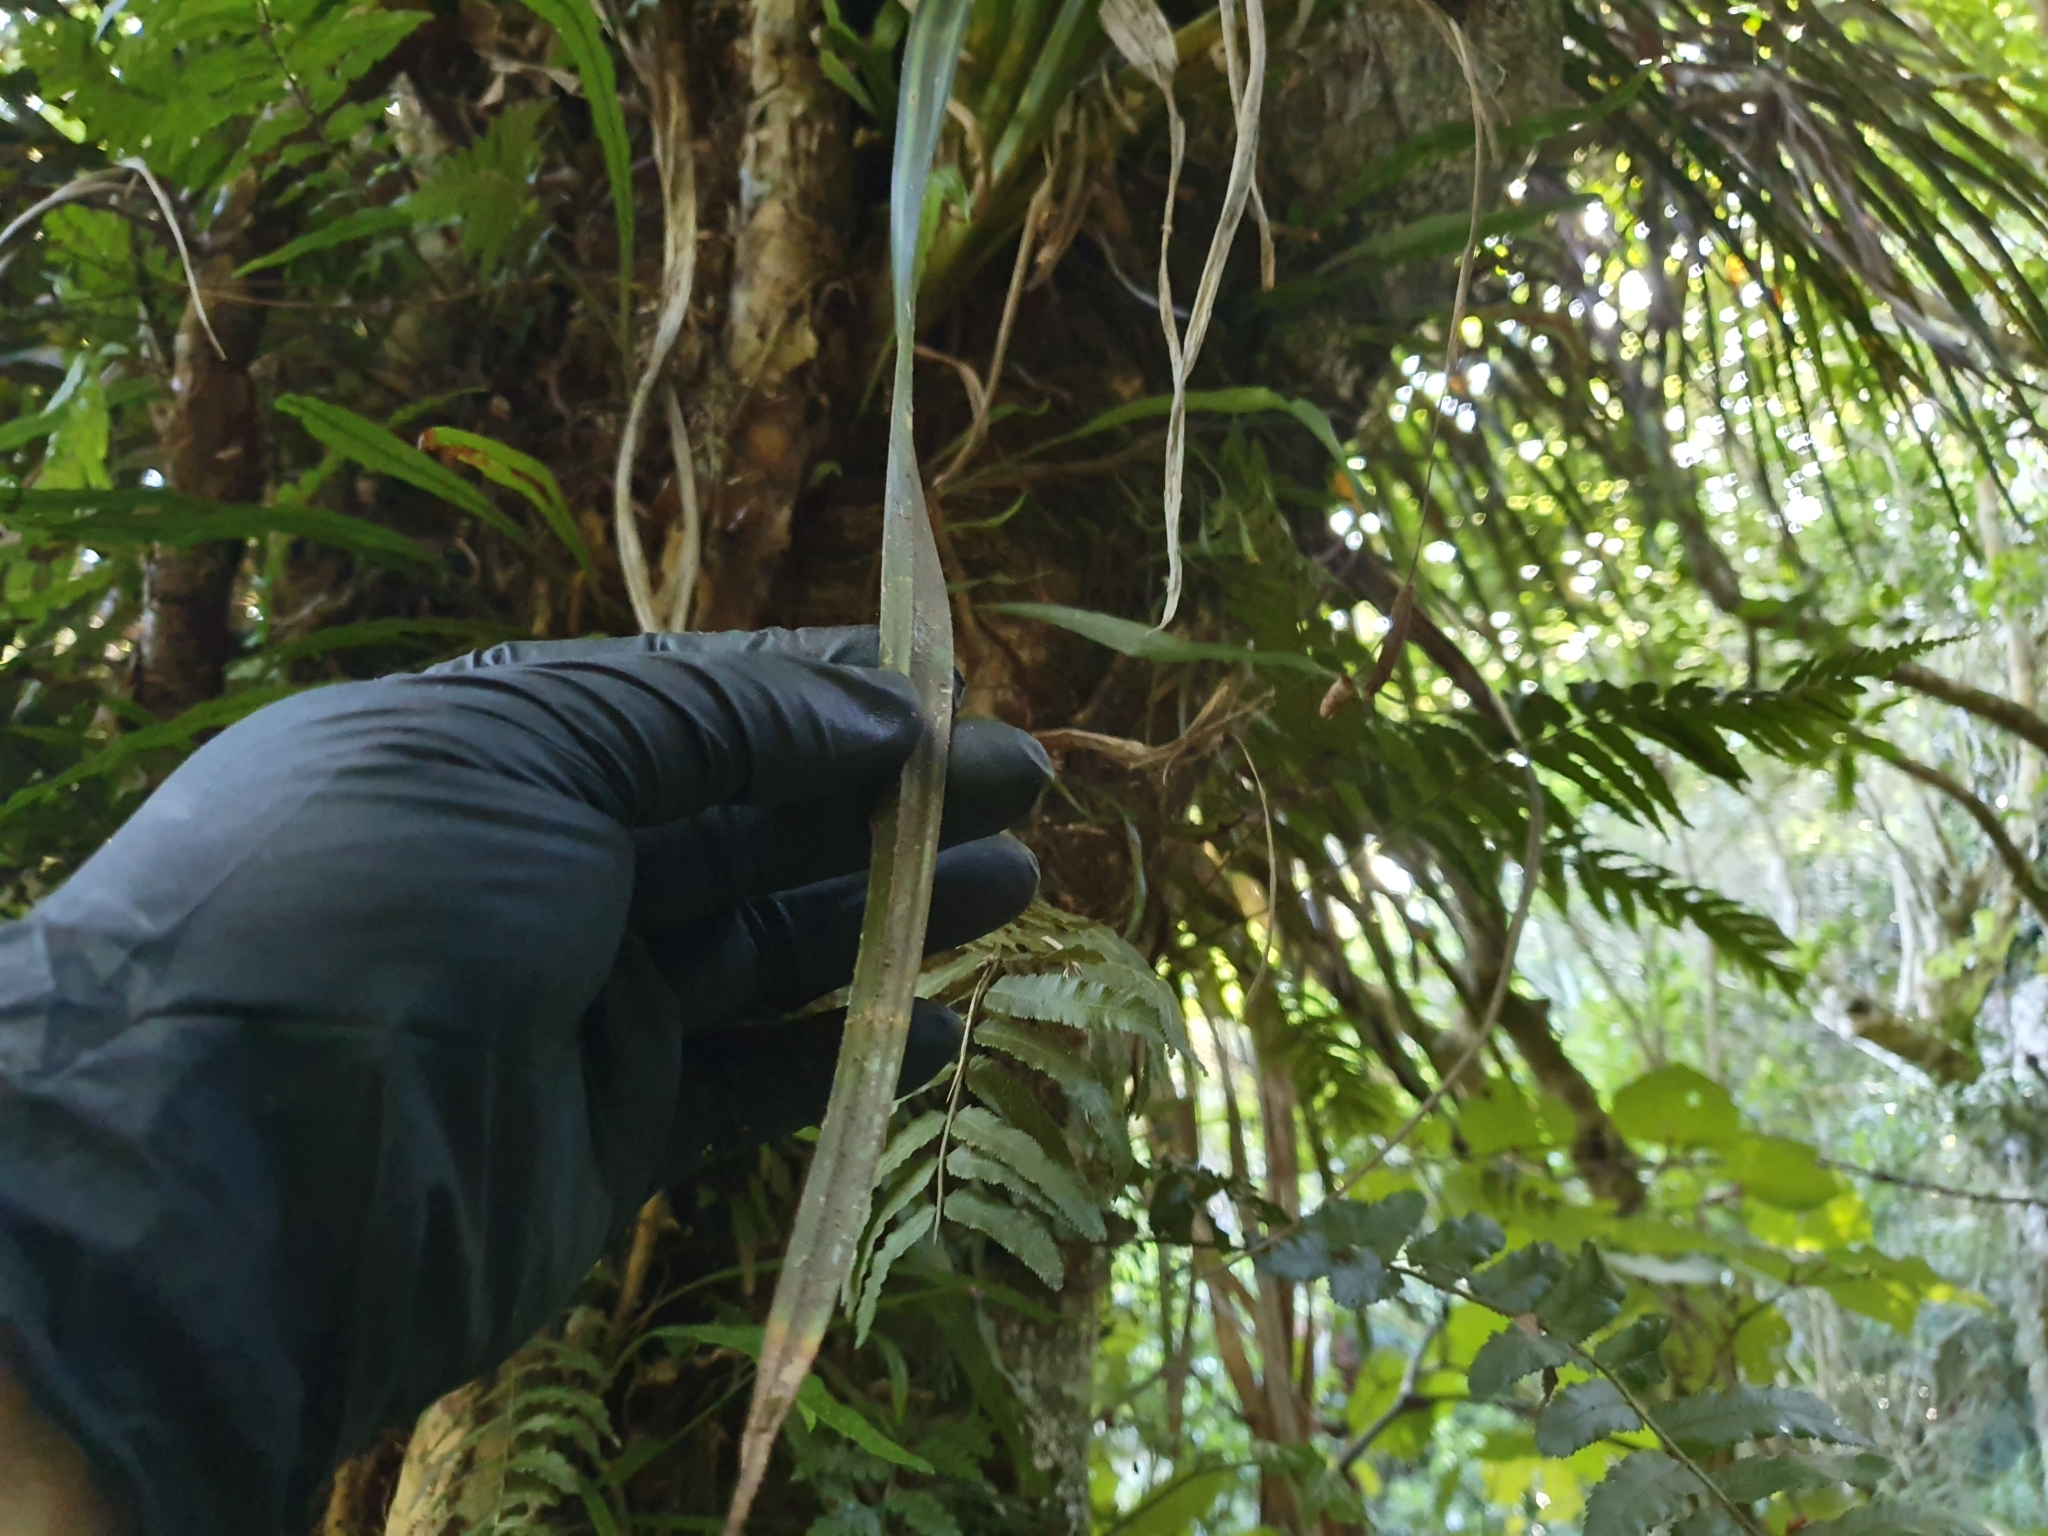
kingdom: Plantae
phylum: Tracheophyta
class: Liliopsida
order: Pandanales
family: Pandanaceae
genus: Freycinetia
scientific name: Freycinetia banksii
